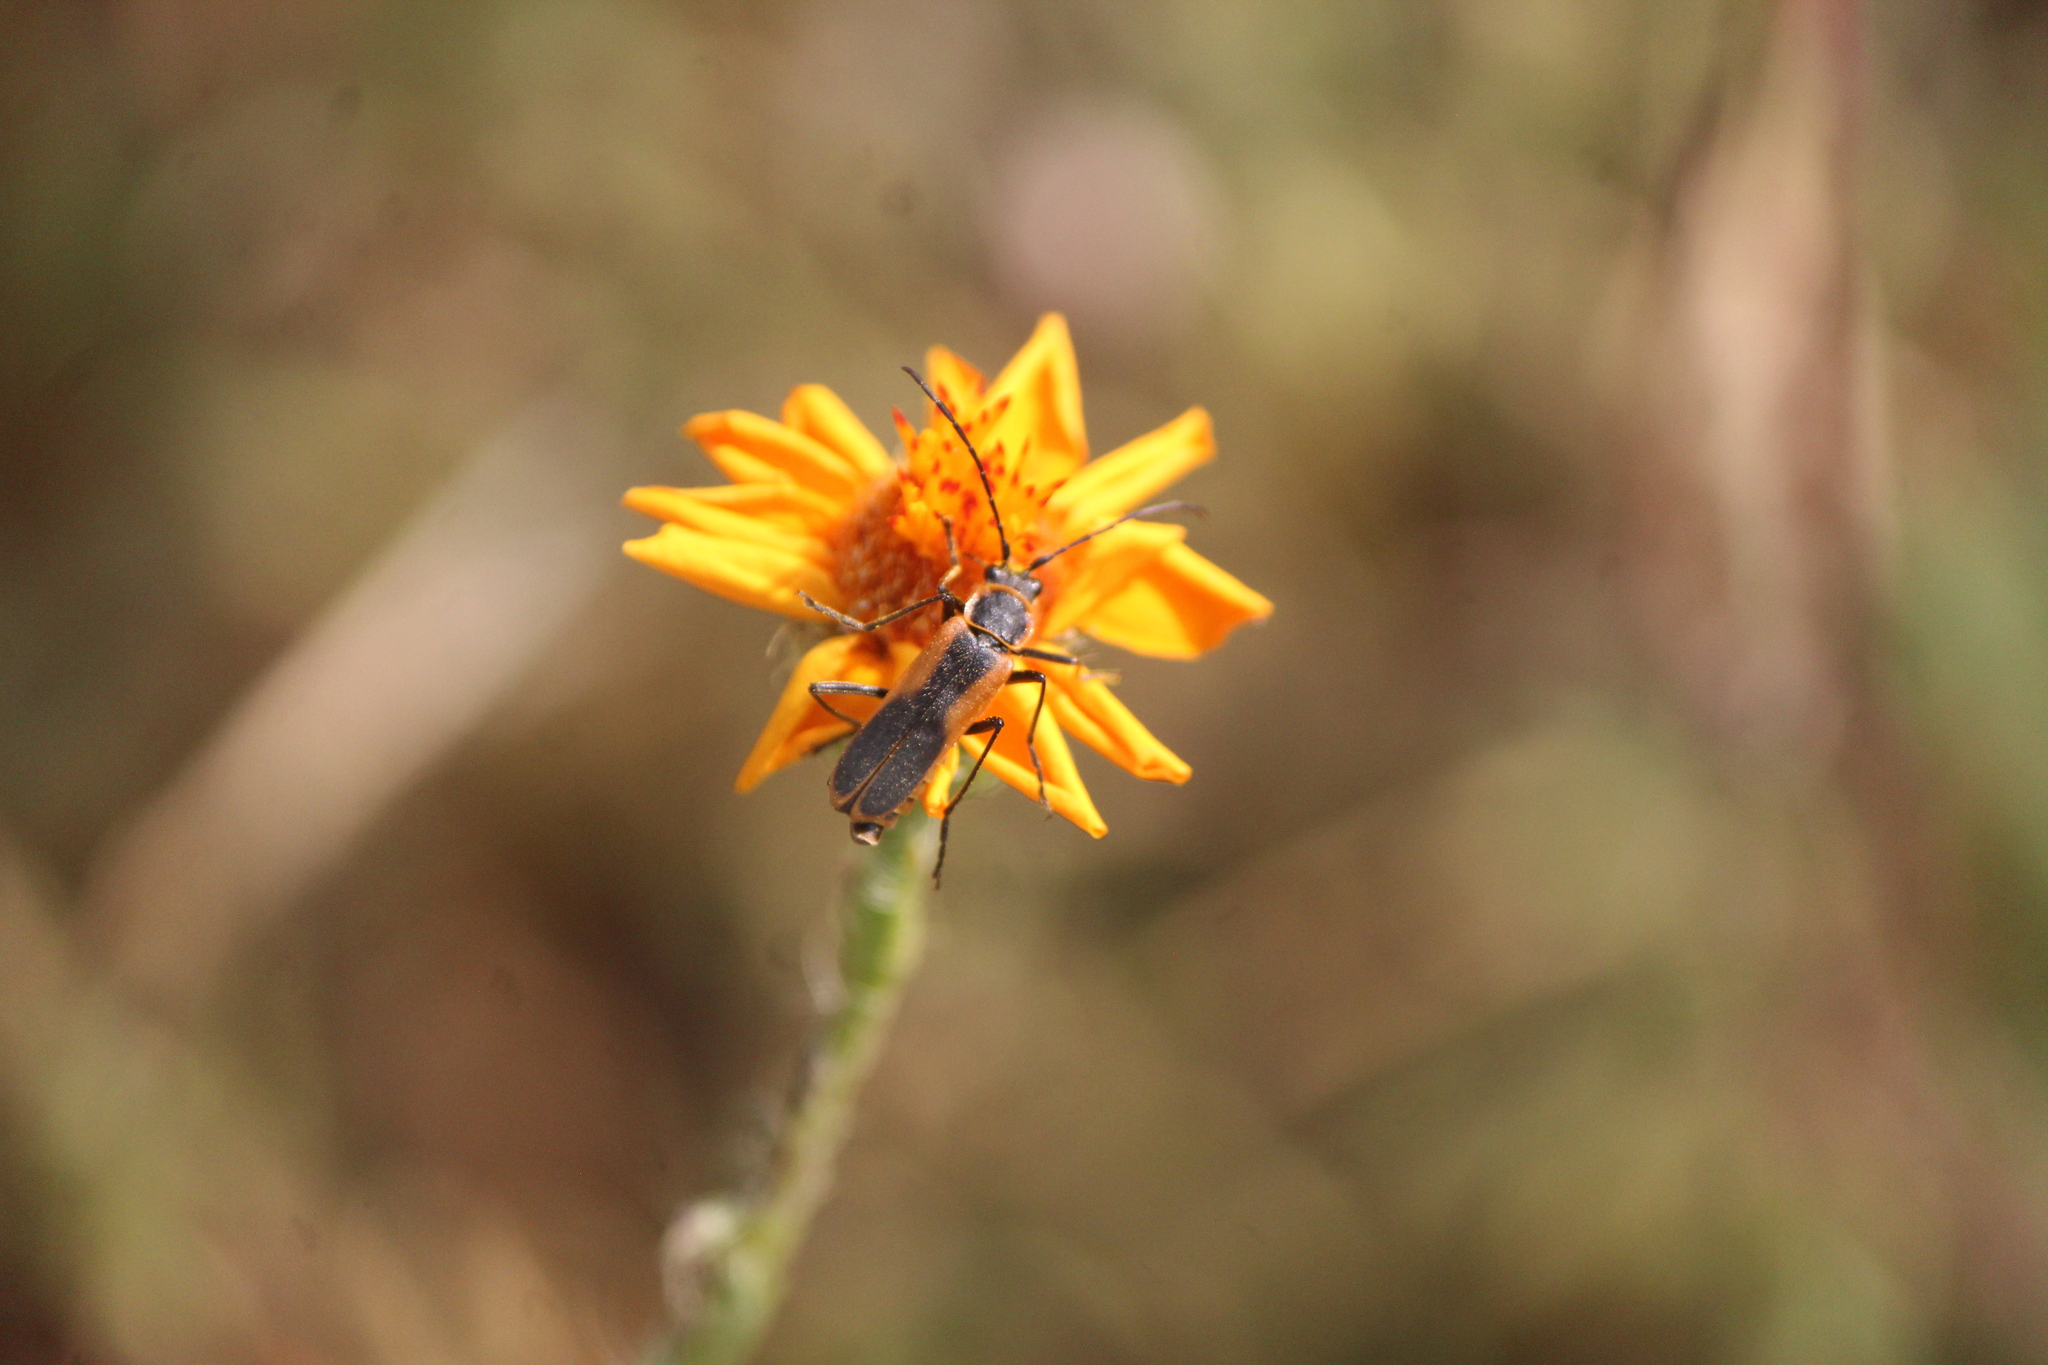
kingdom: Animalia
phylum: Arthropoda
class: Insecta
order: Coleoptera
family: Cantharidae
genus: Chauliognathus
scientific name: Chauliognathus limbicollis
